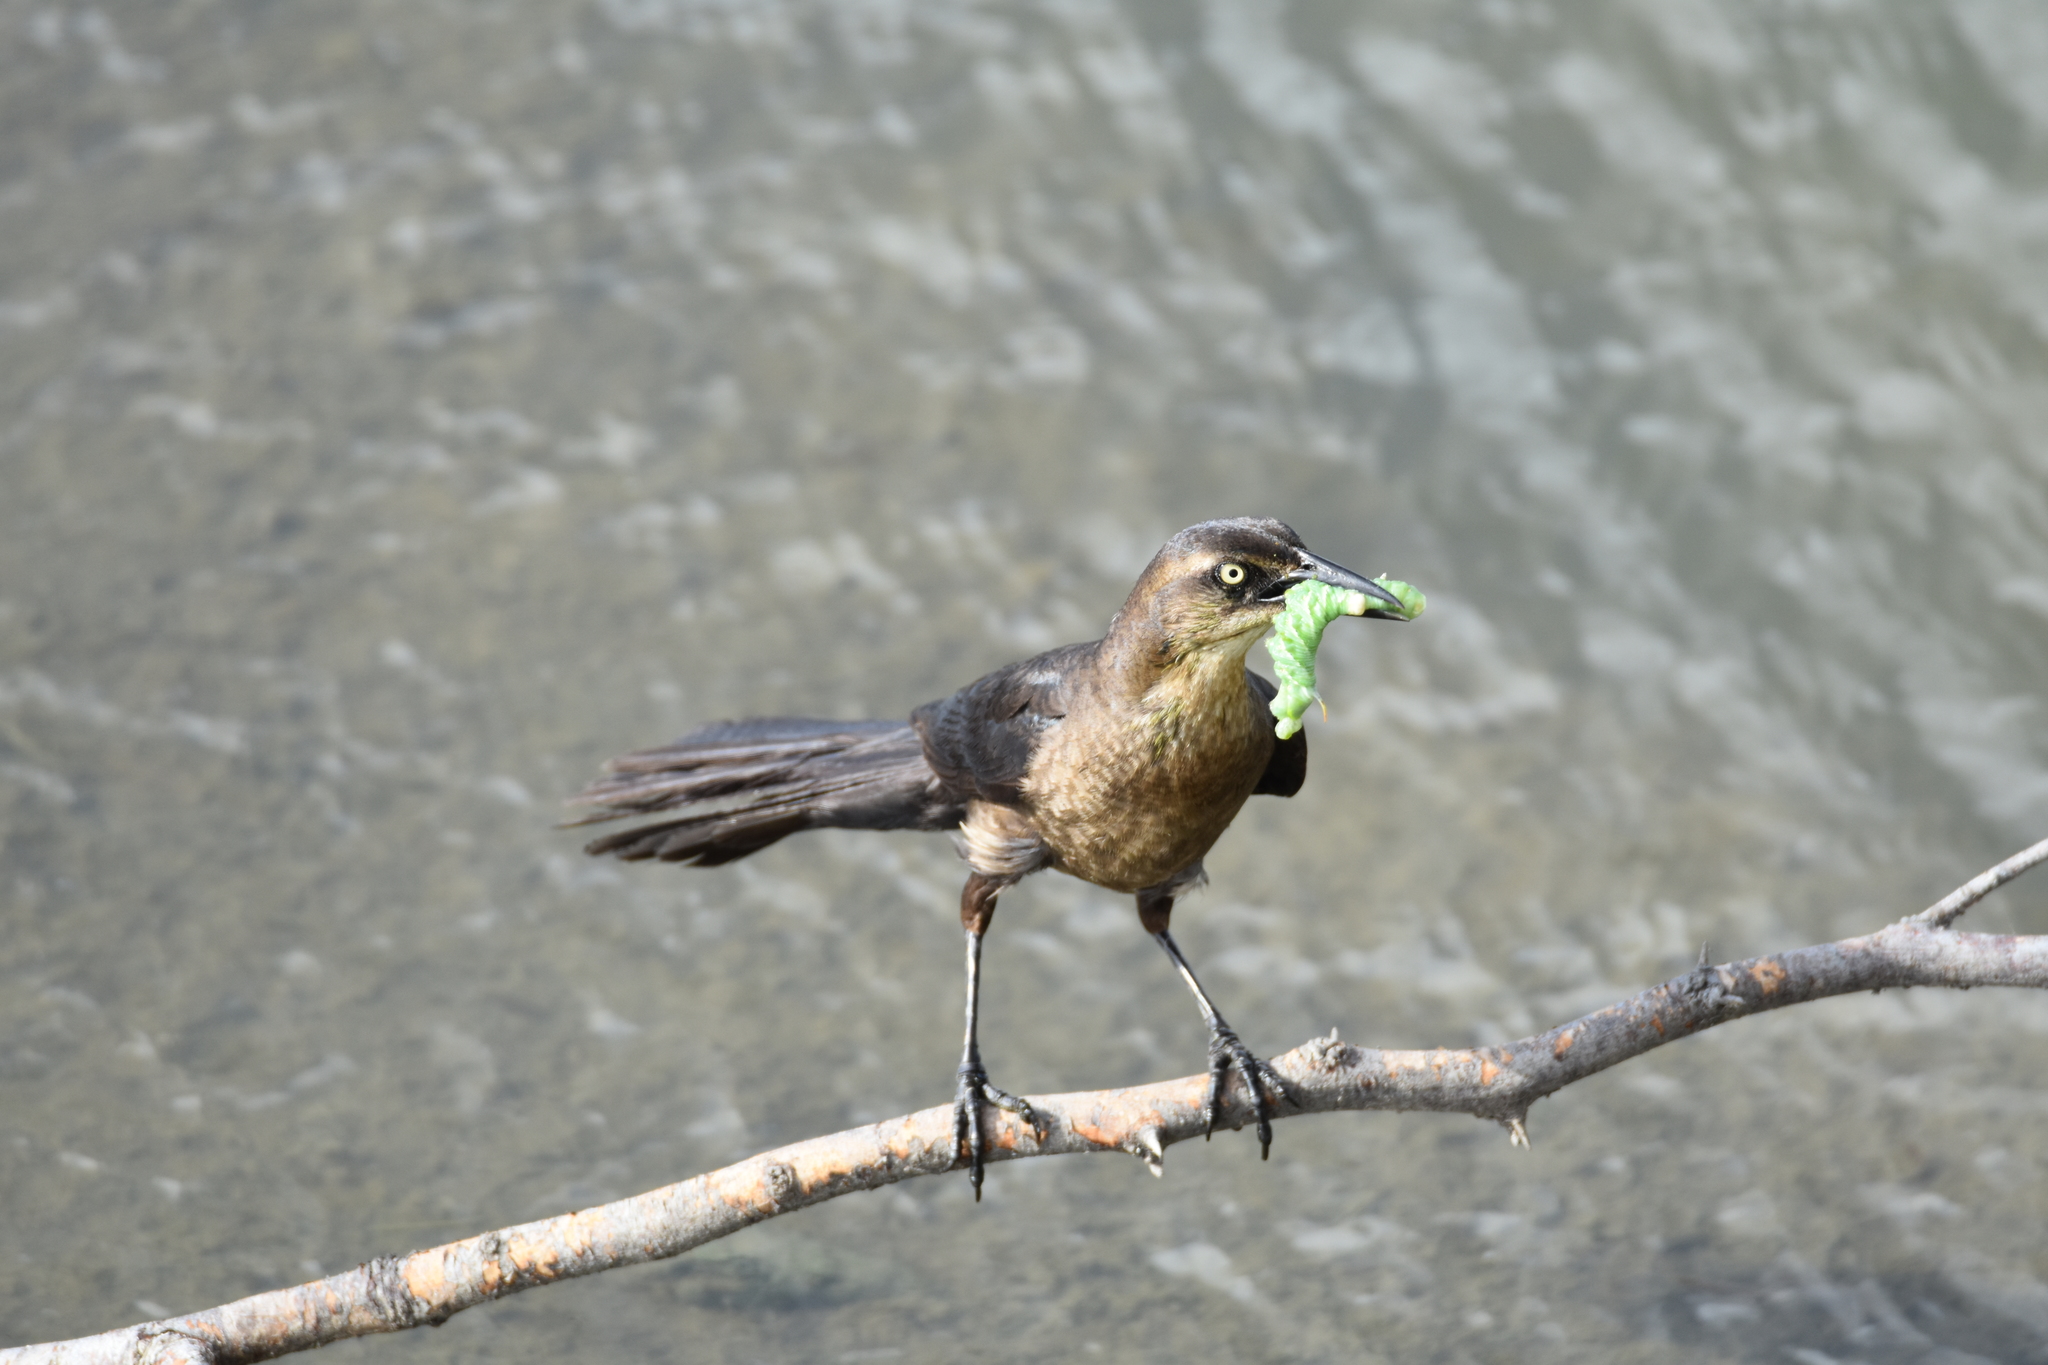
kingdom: Animalia
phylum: Arthropoda
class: Insecta
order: Lepidoptera
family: Sphingidae
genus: Manduca
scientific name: Manduca sexta
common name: Carolina sphinx
